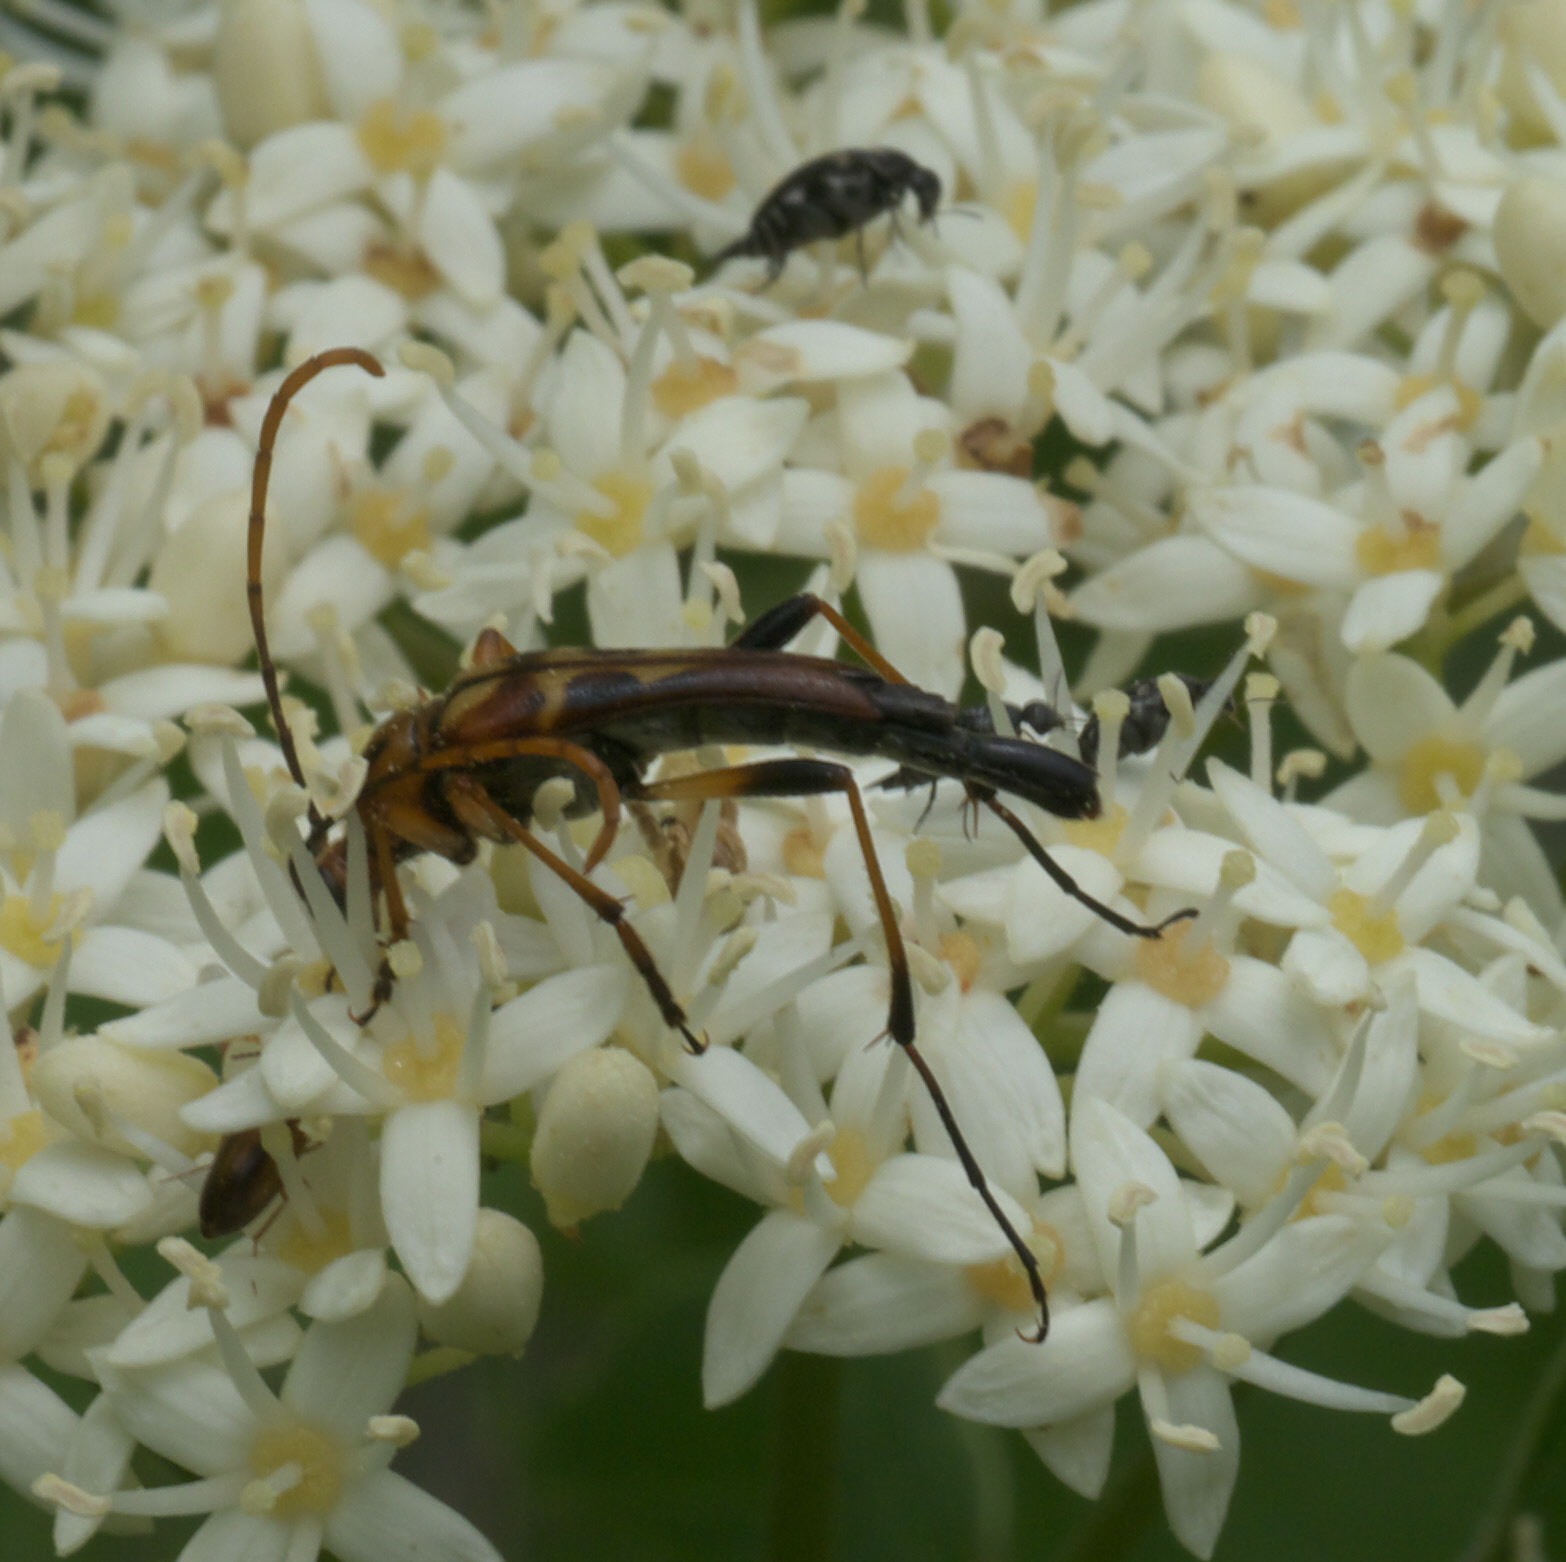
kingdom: Animalia
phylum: Arthropoda
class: Insecta
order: Coleoptera
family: Cerambycidae
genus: Strangalia
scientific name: Strangalia virilis
